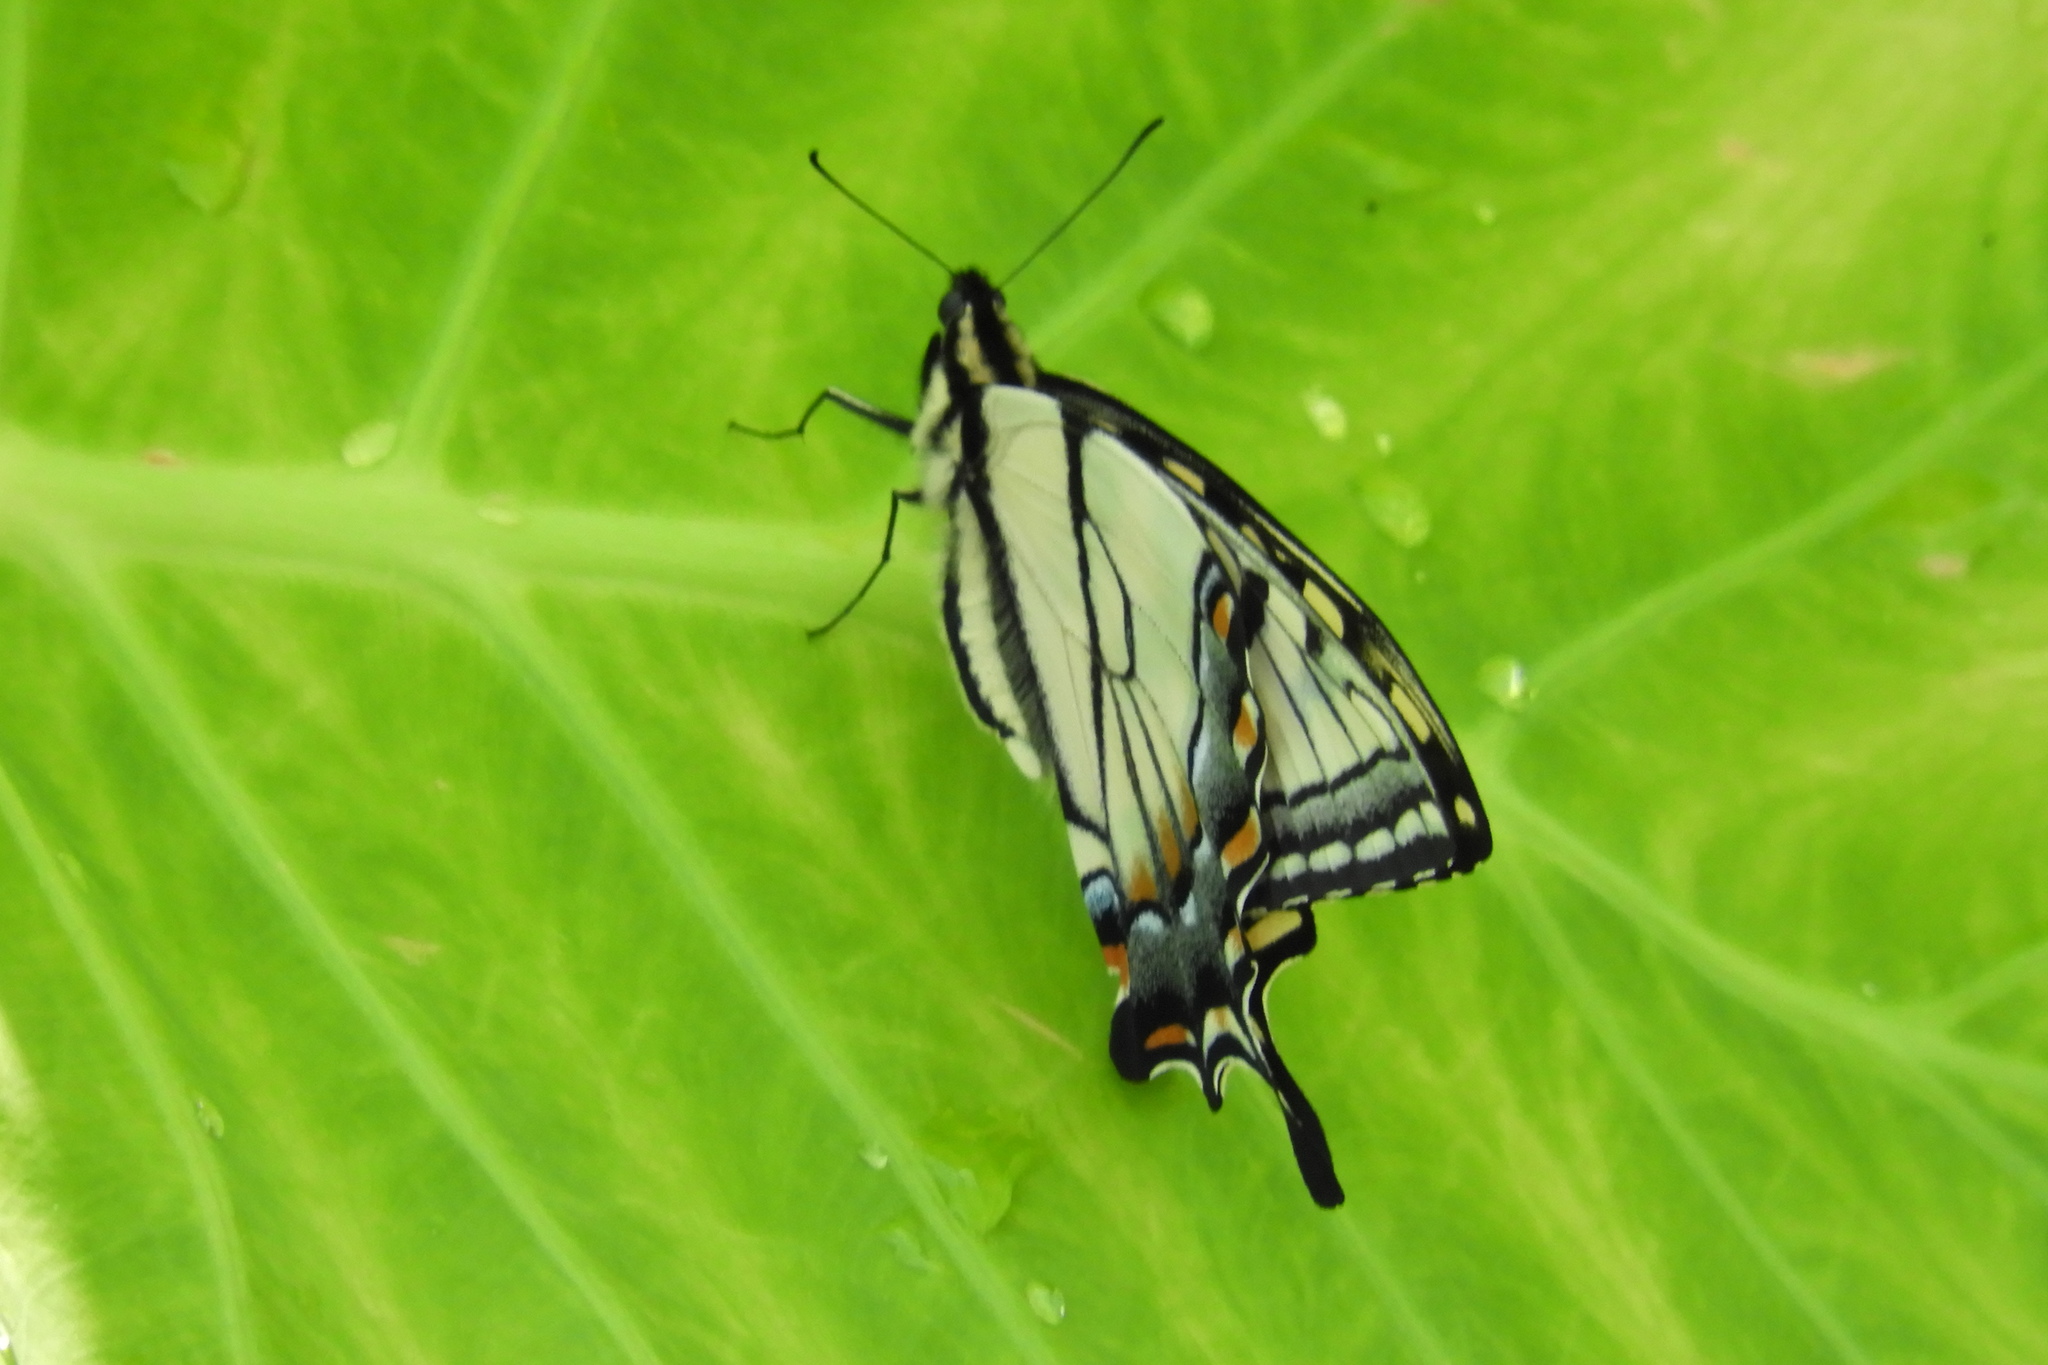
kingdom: Animalia
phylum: Arthropoda
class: Insecta
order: Lepidoptera
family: Papilionidae
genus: Papilio
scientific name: Papilio glaucus
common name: Tiger swallowtail
